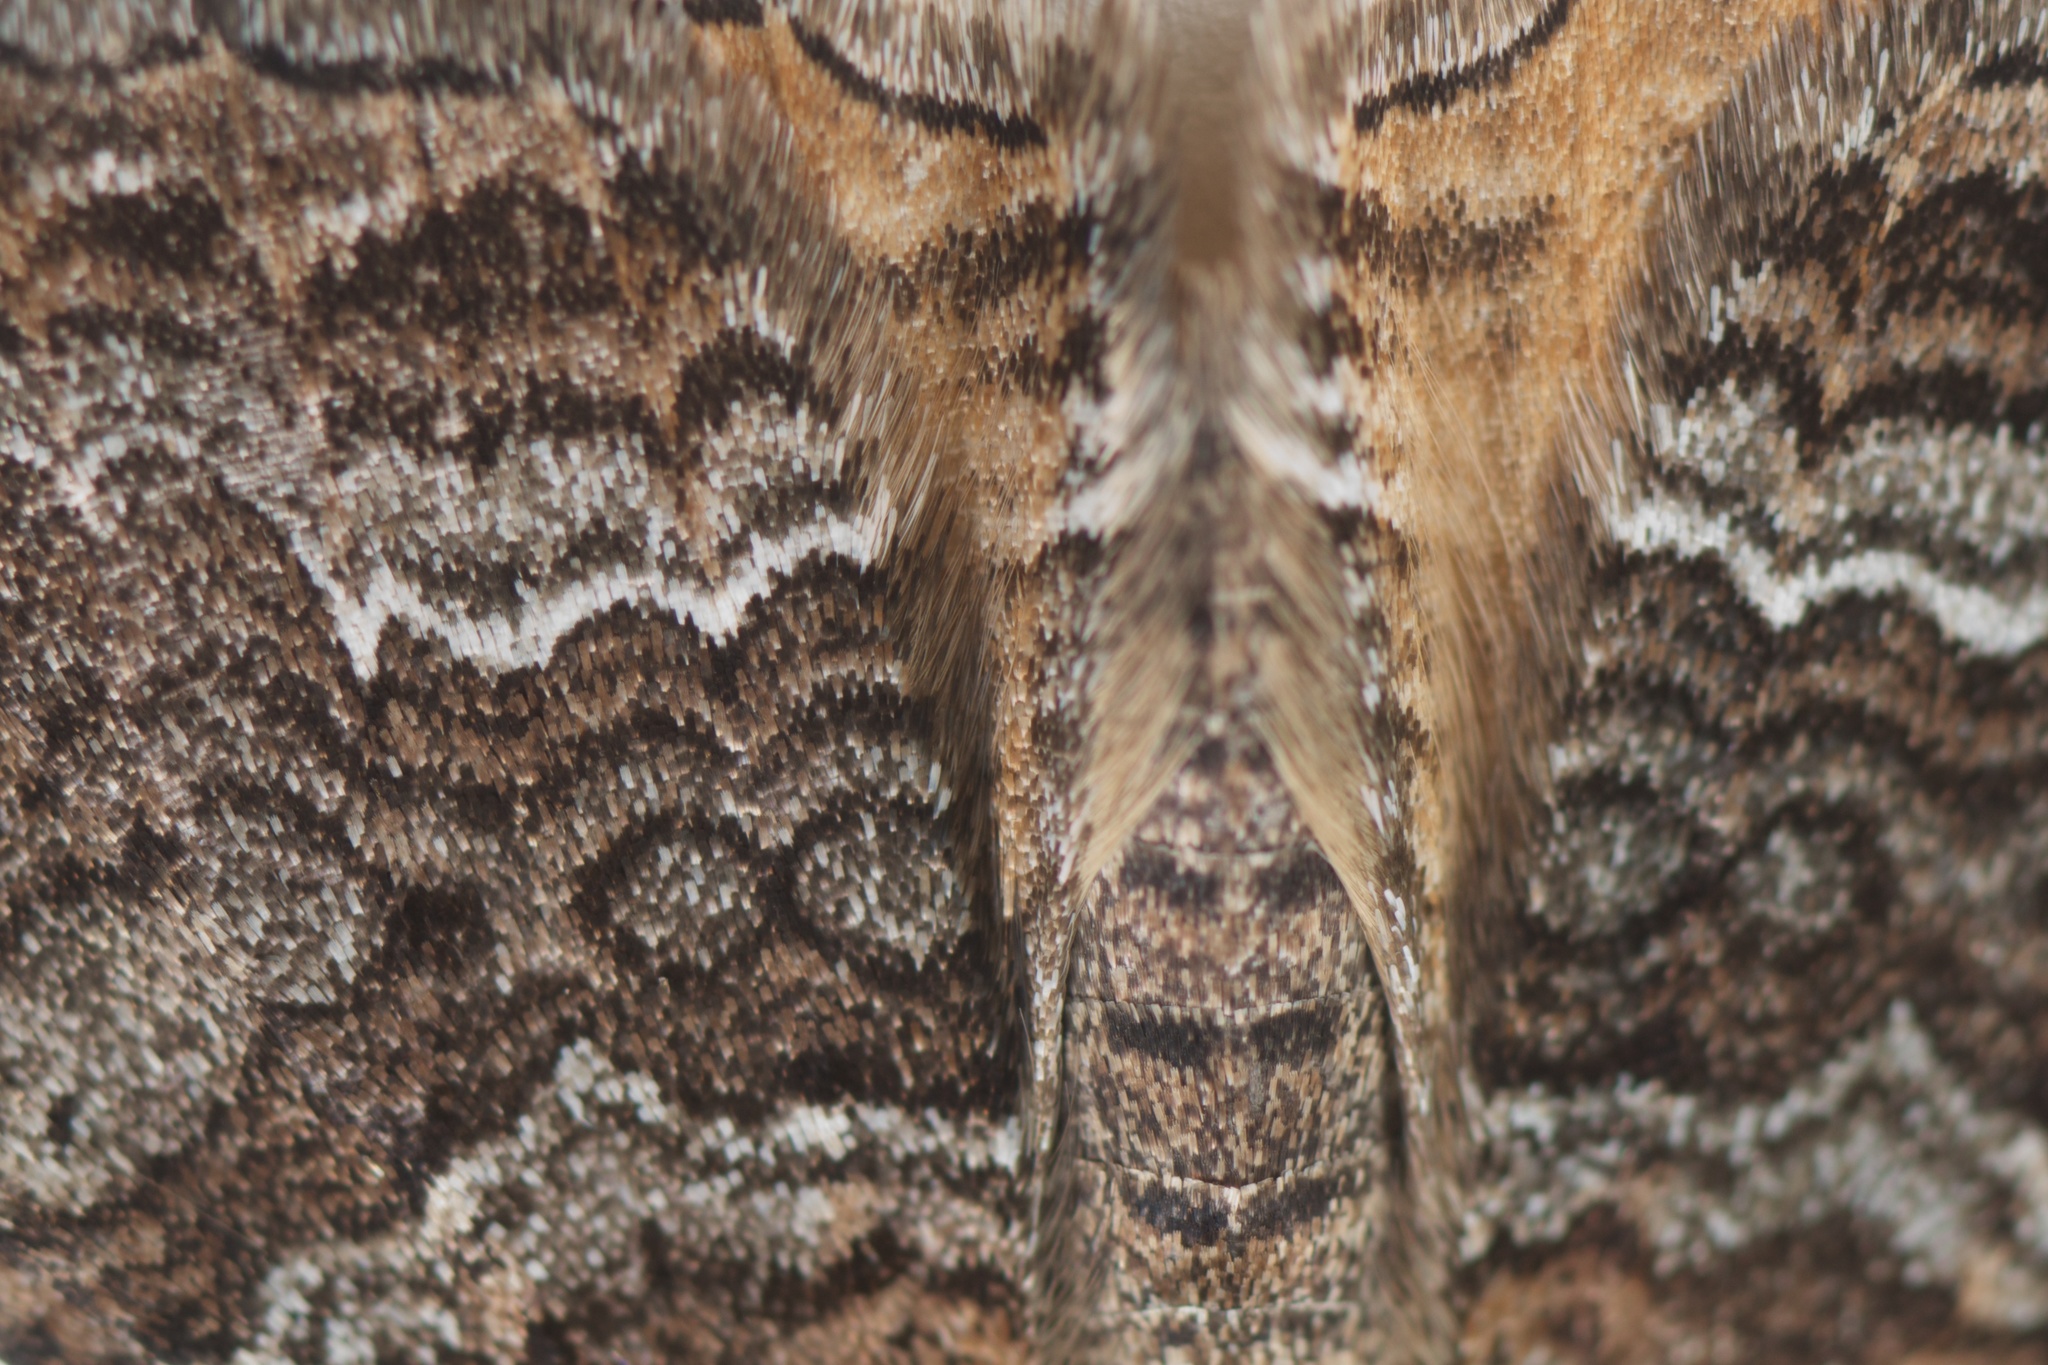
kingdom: Animalia
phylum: Arthropoda
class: Insecta
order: Lepidoptera
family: Geometridae
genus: Hydriomena
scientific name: Hydriomena deltoidata
